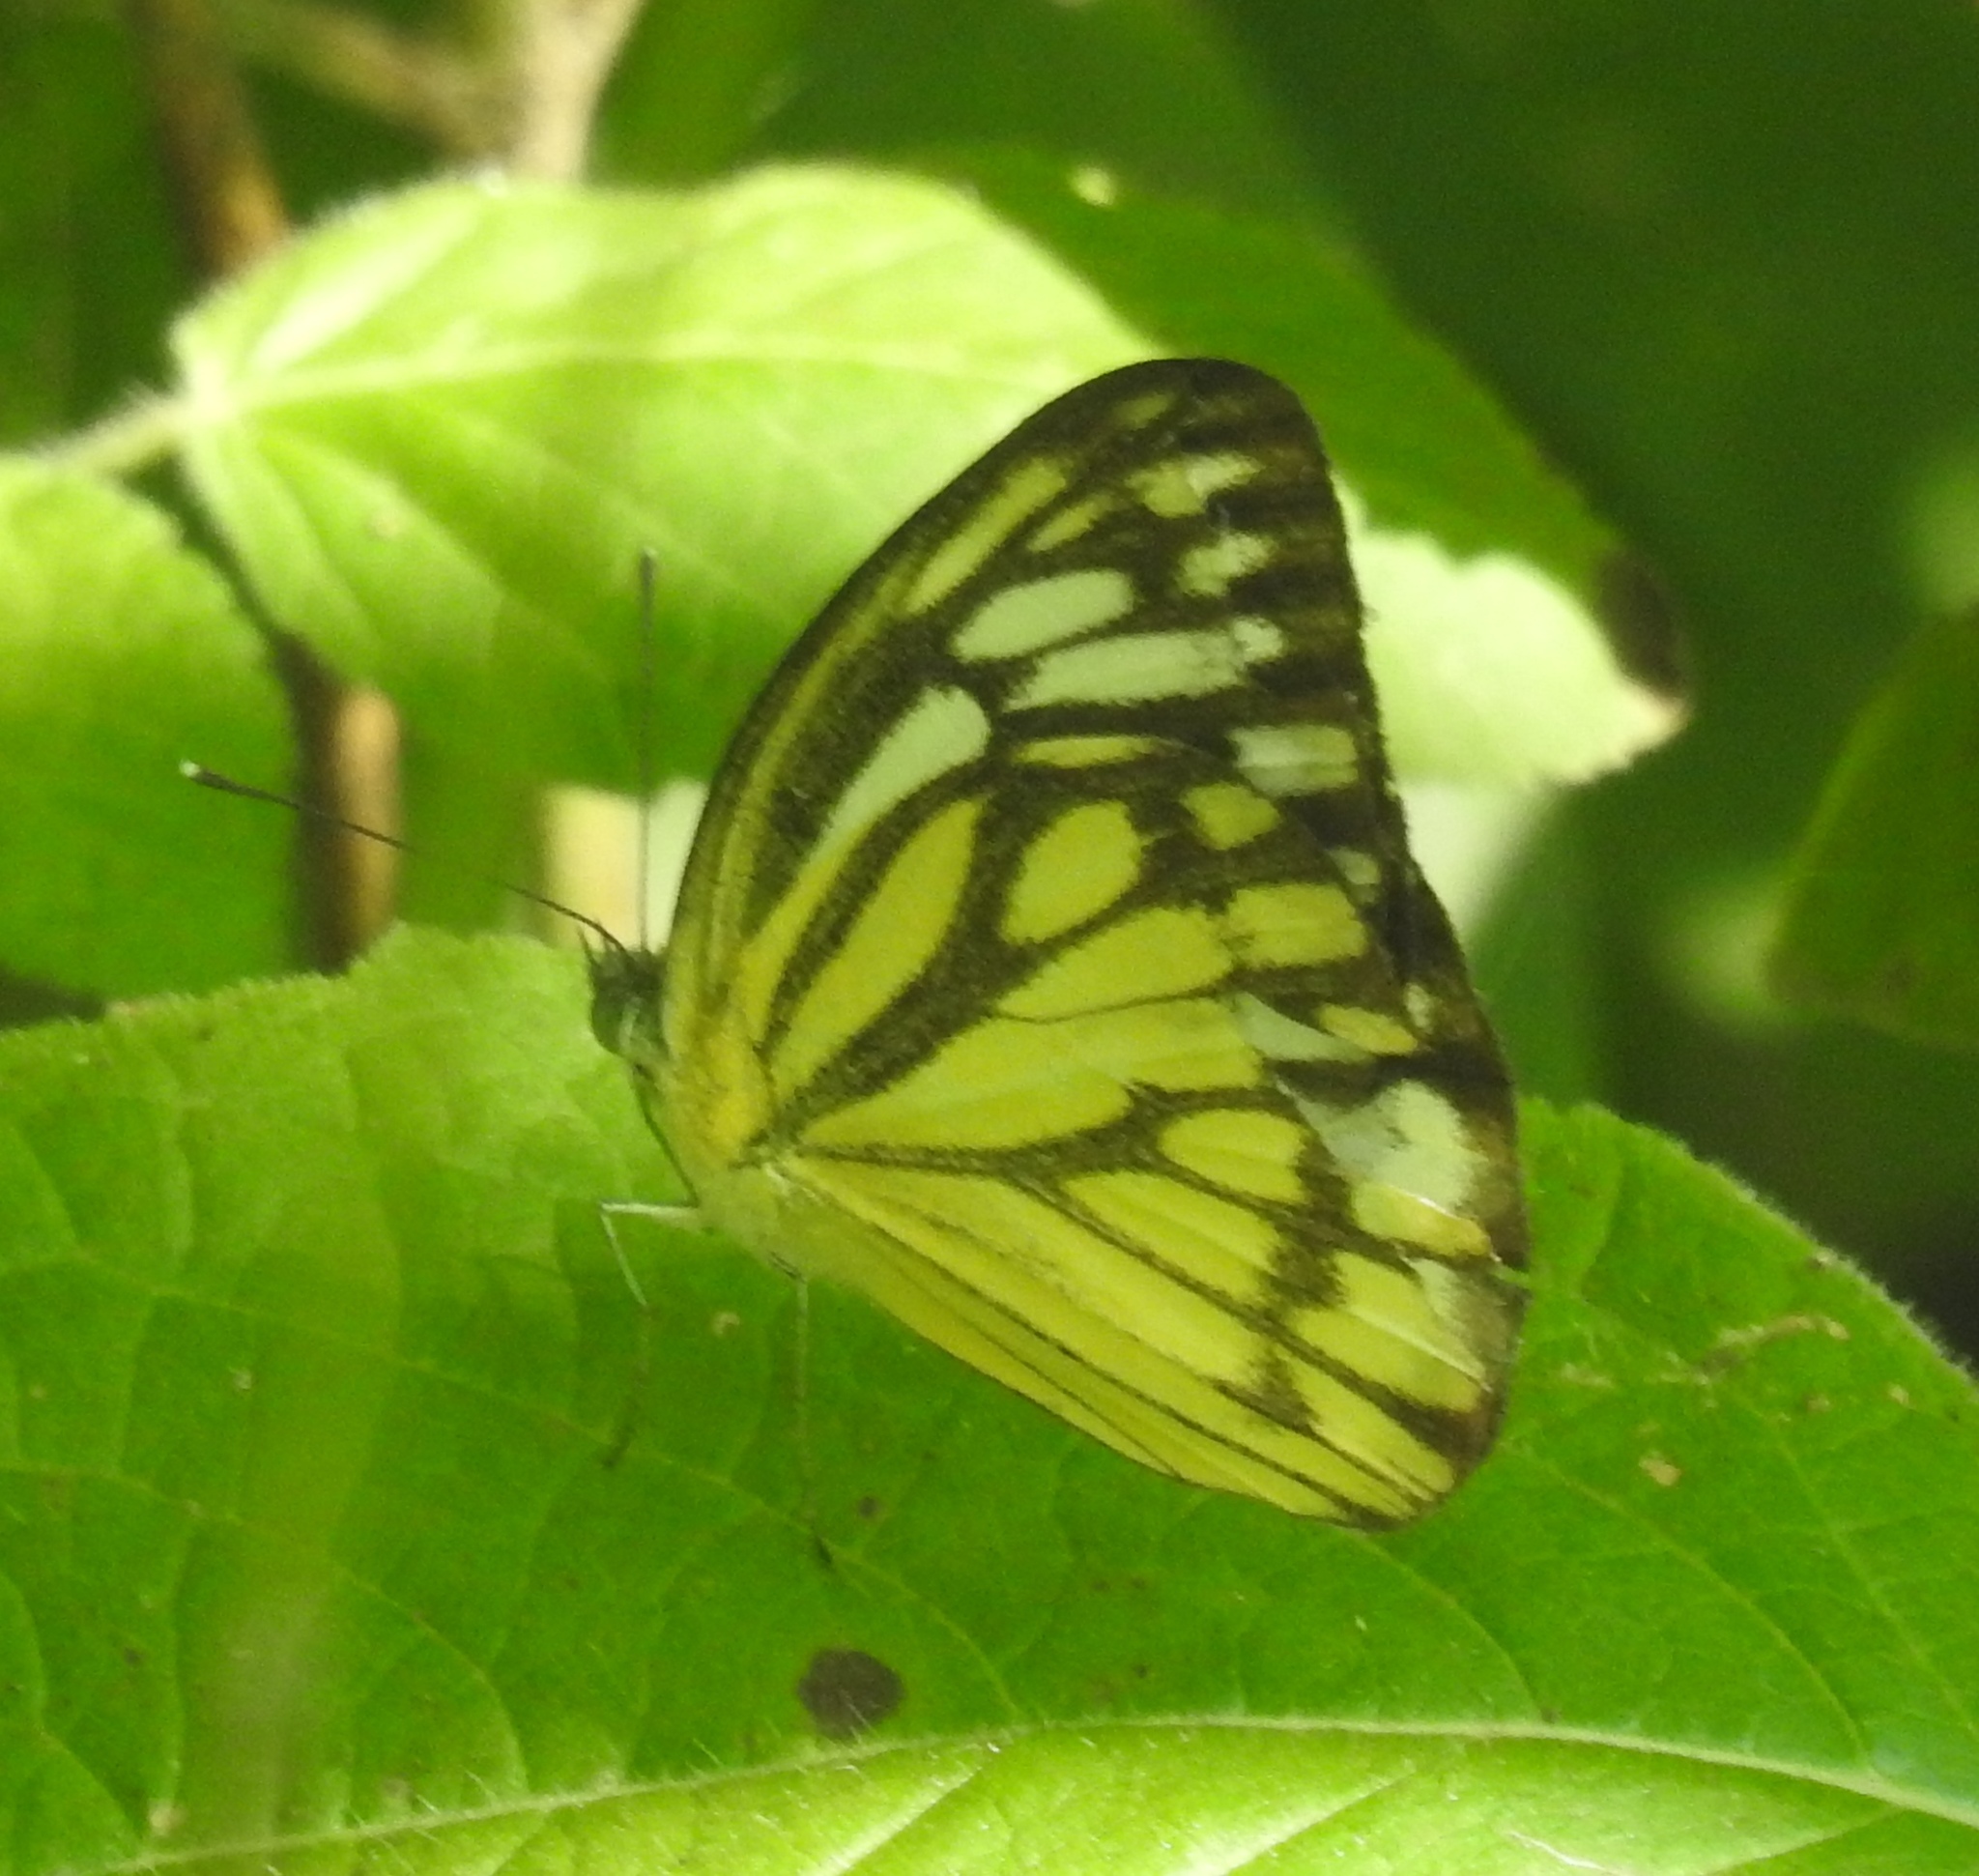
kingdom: Animalia
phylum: Arthropoda
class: Insecta
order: Lepidoptera
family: Pieridae
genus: Cepora
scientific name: Cepora nerissa
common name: Common gull
